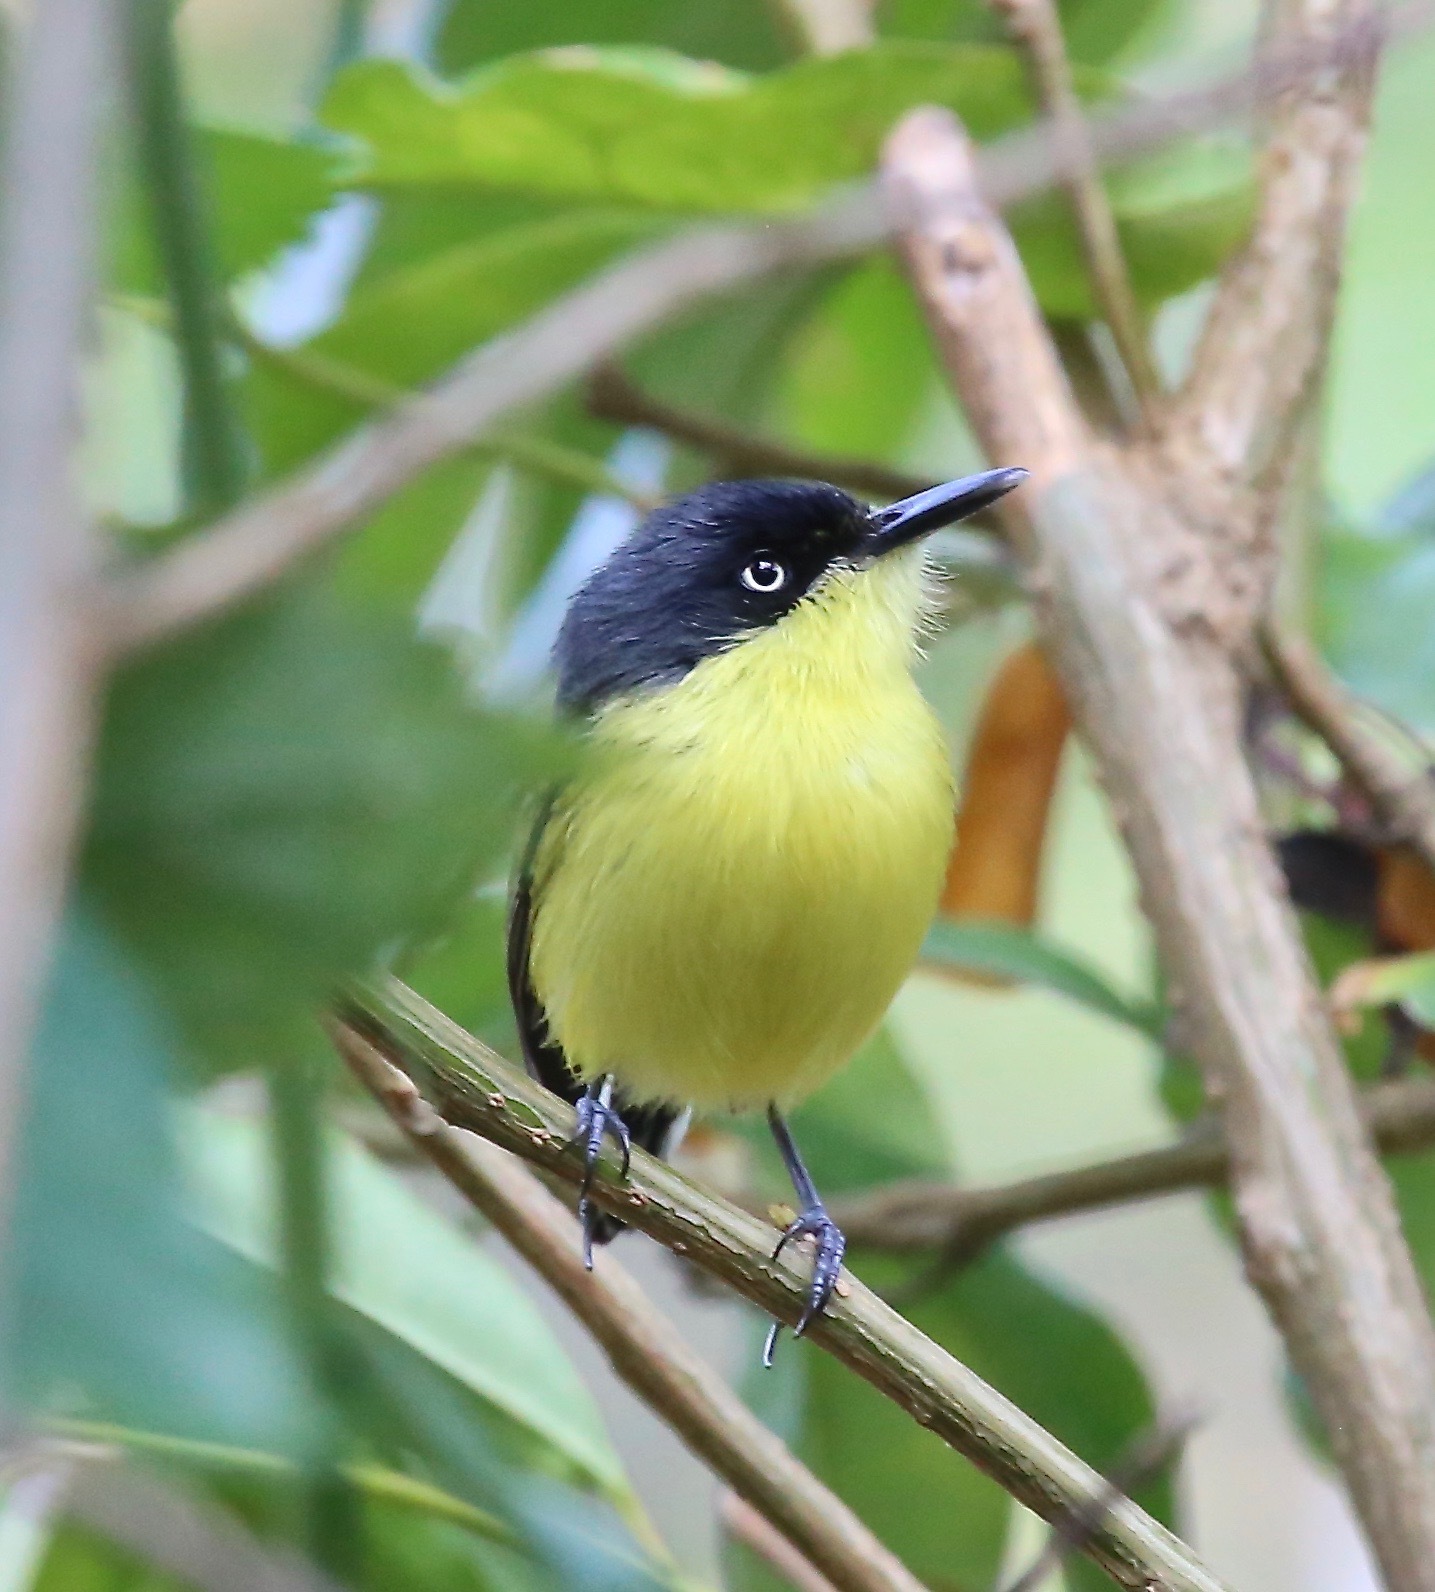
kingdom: Animalia
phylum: Chordata
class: Aves
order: Passeriformes
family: Tyrannidae
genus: Todirostrum
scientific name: Todirostrum cinereum
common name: Common tody-flycatcher
